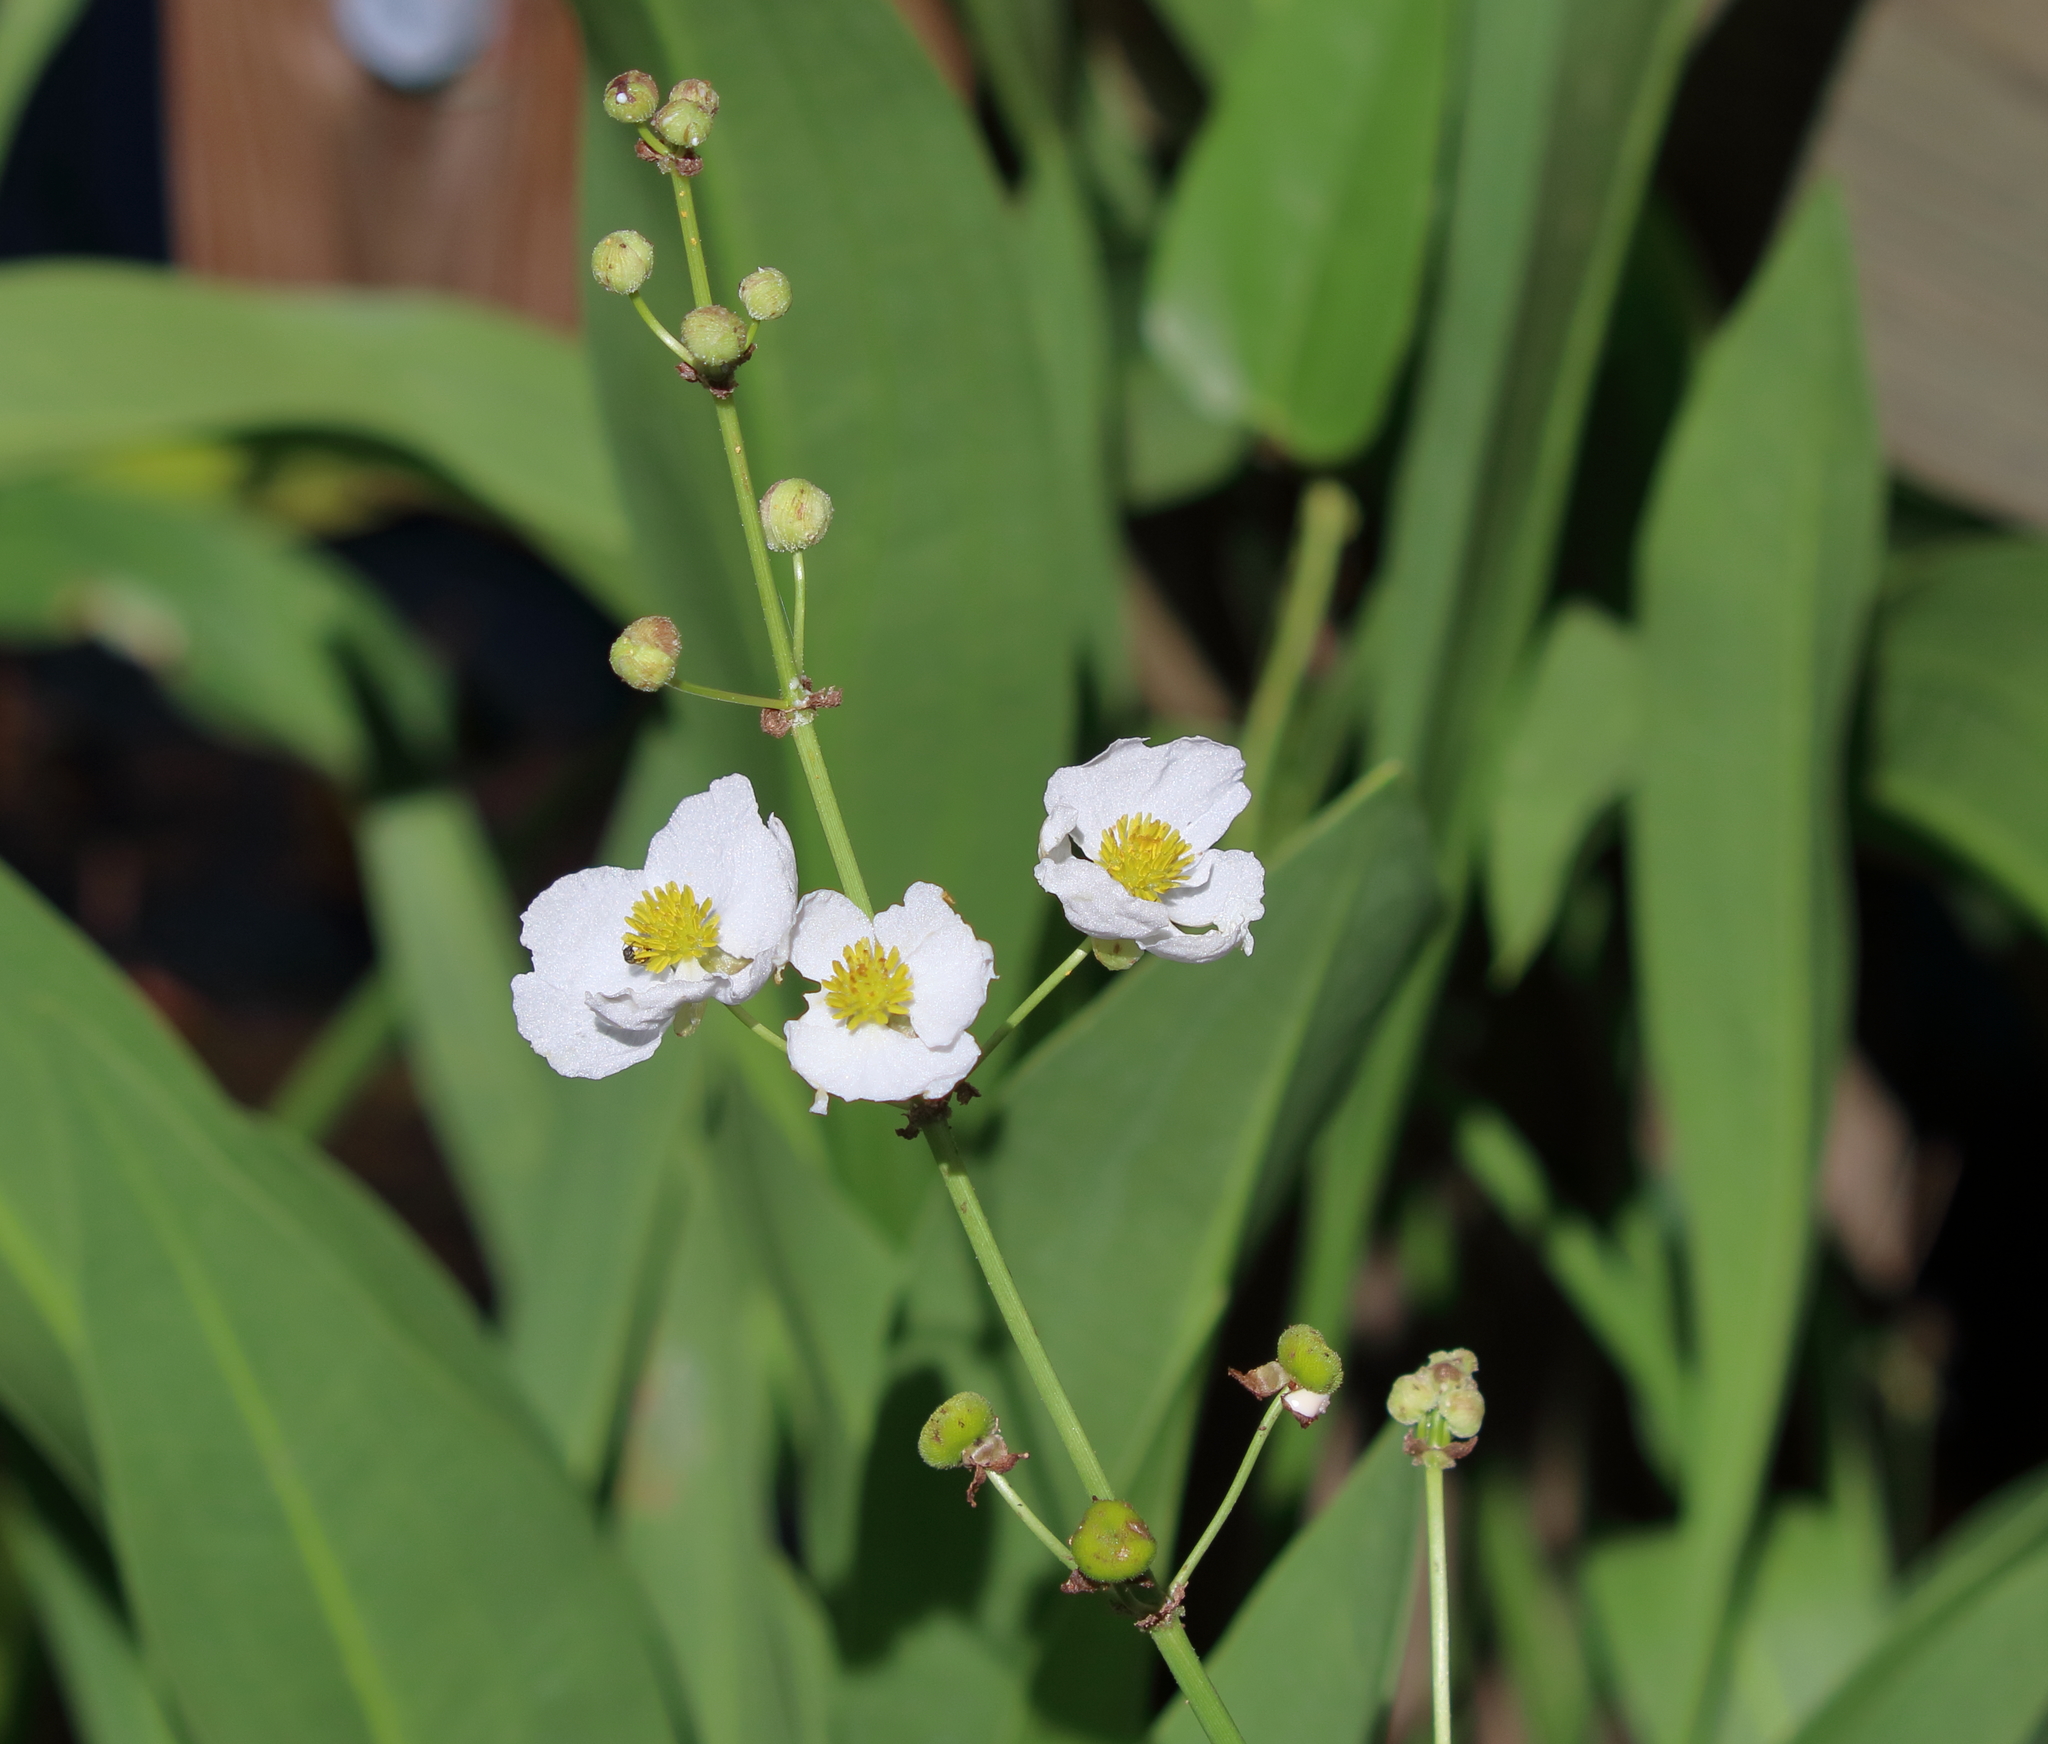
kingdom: Plantae
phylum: Tracheophyta
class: Liliopsida
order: Alismatales
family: Alismataceae
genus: Sagittaria
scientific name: Sagittaria lancifolia
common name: Lance-leaf arrowhead
